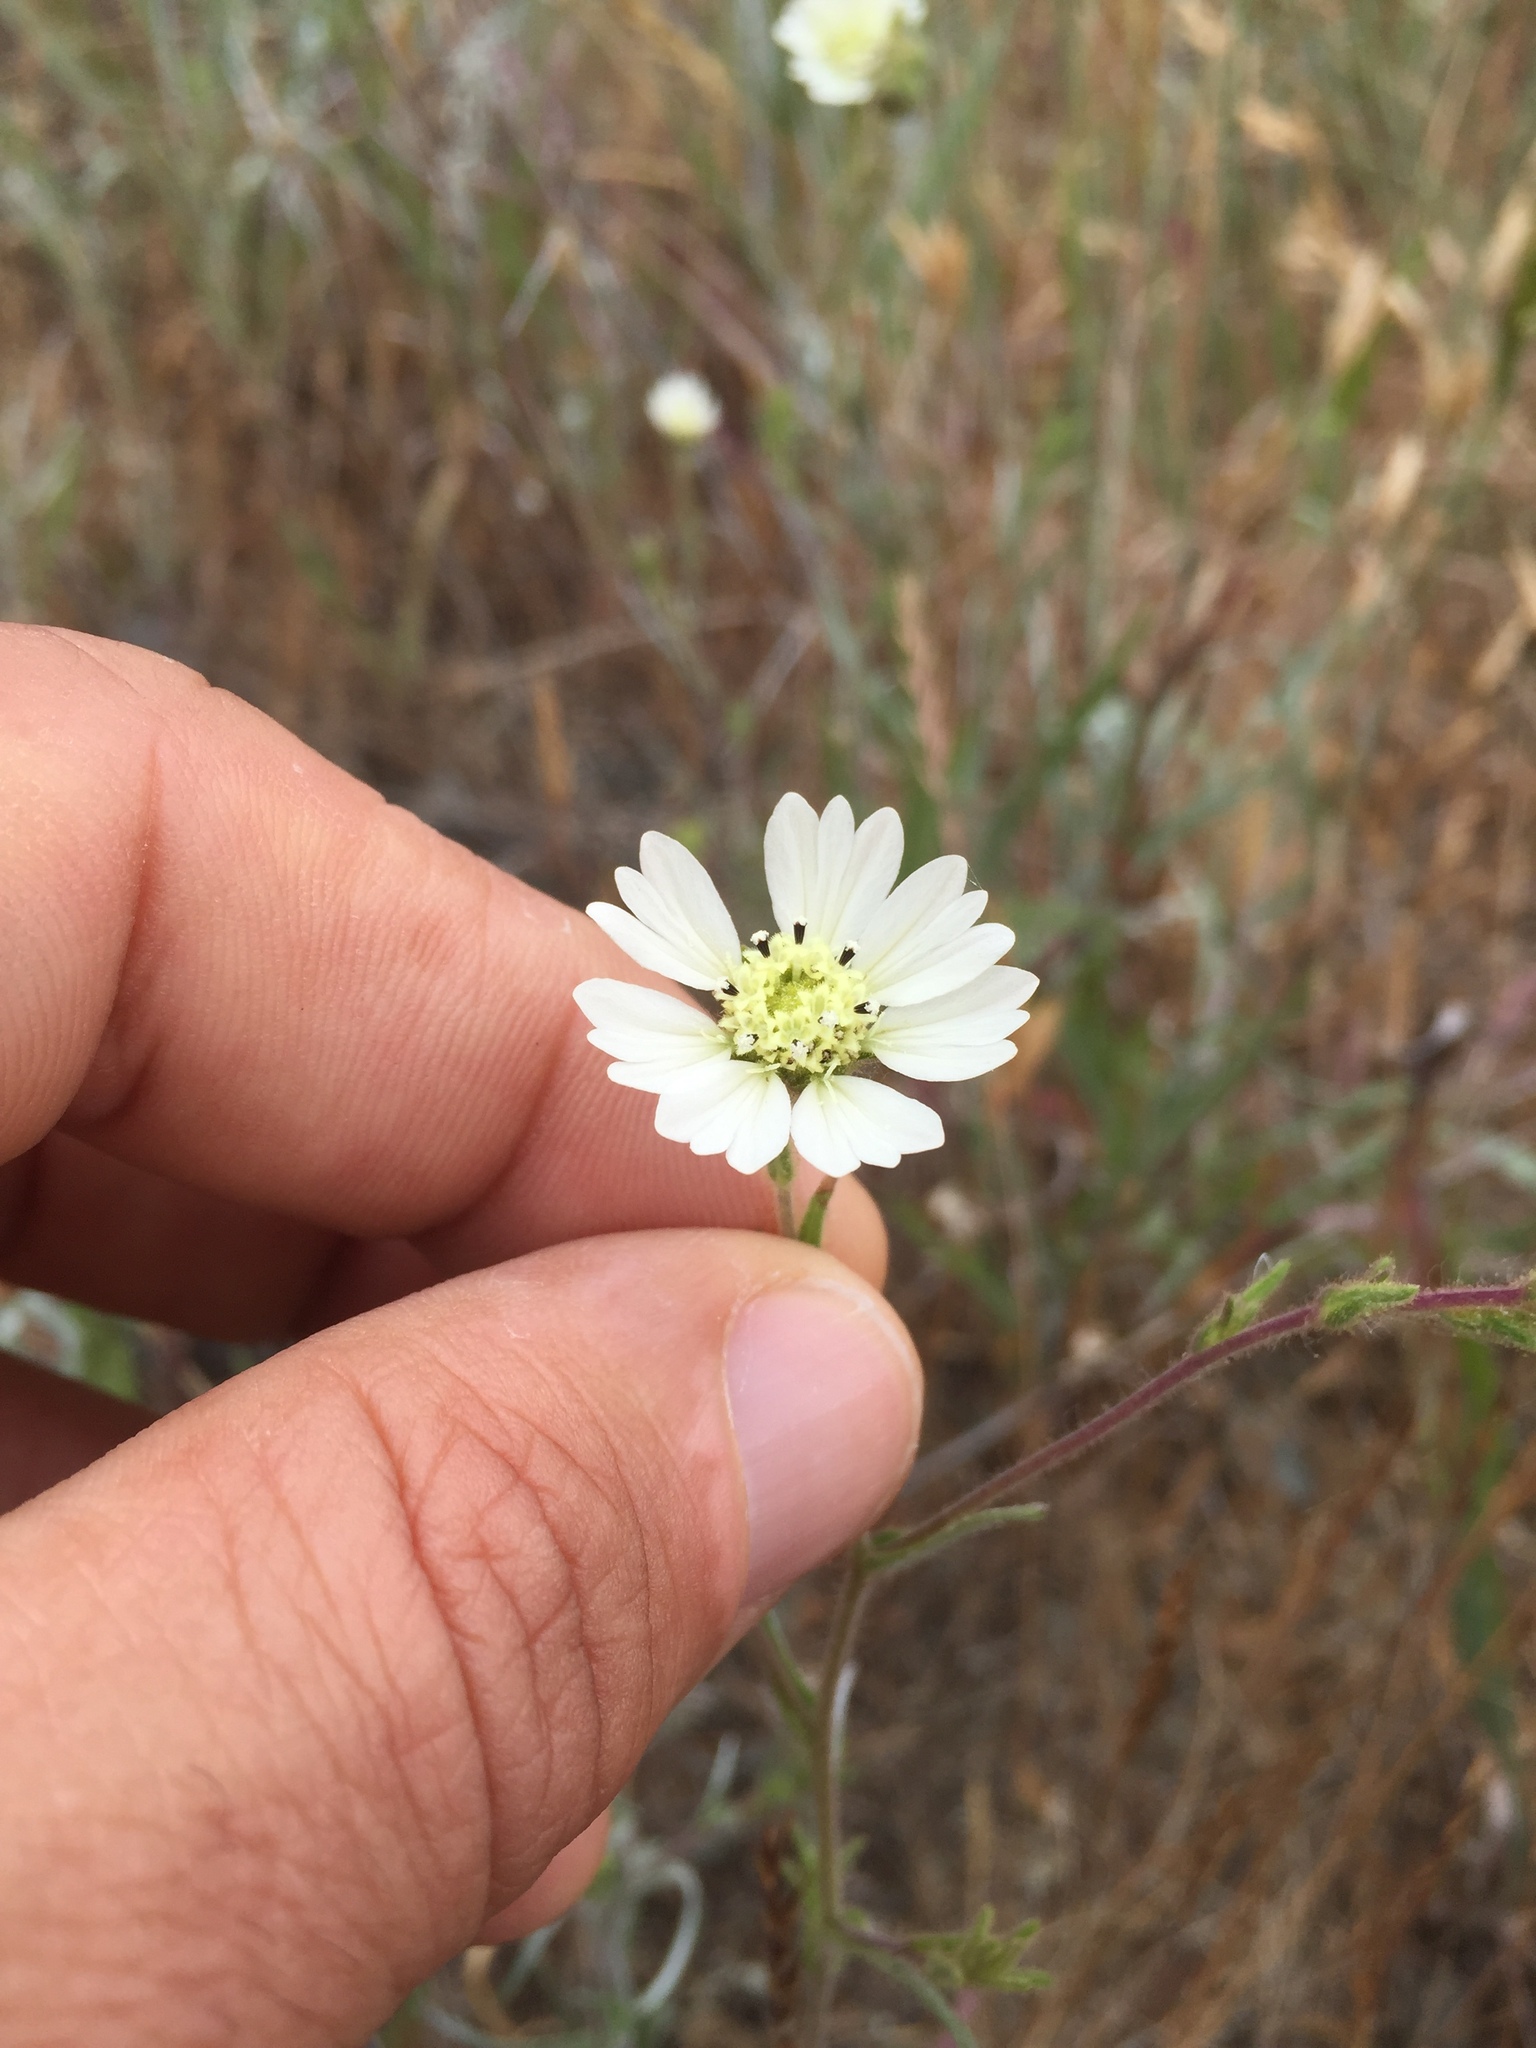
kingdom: Plantae
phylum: Tracheophyta
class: Magnoliopsida
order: Asterales
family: Asteraceae
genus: Hemizonia
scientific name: Hemizonia congesta
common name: Hayfield tarweed
